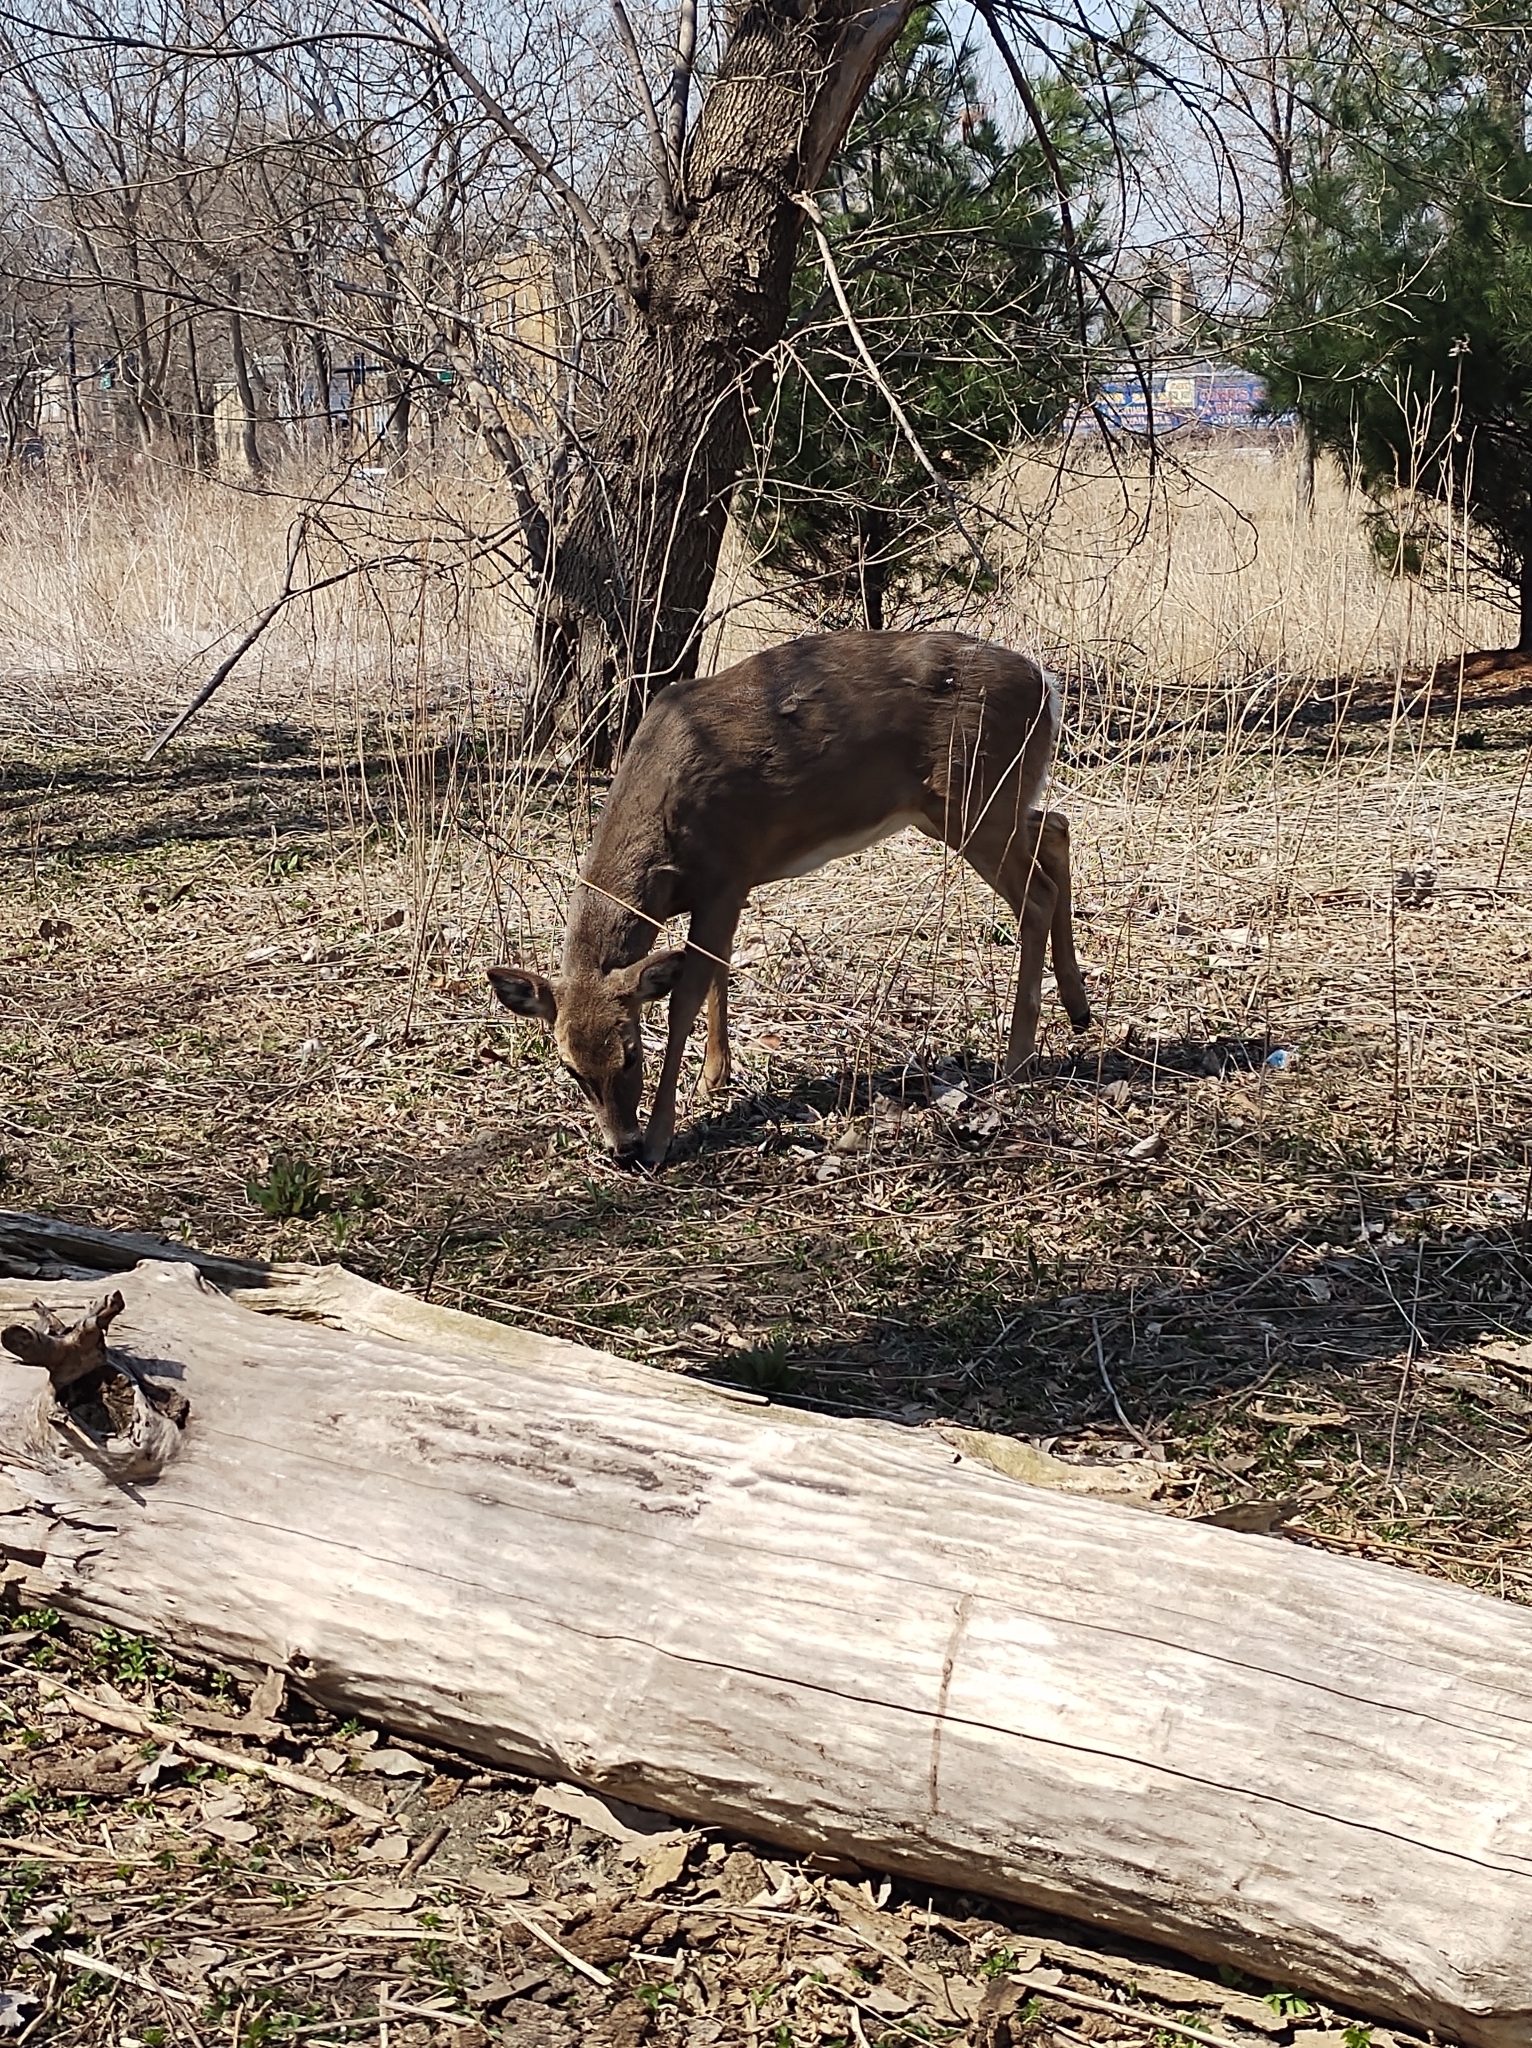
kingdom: Animalia
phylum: Chordata
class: Mammalia
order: Artiodactyla
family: Cervidae
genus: Odocoileus
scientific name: Odocoileus virginianus
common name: White-tailed deer
